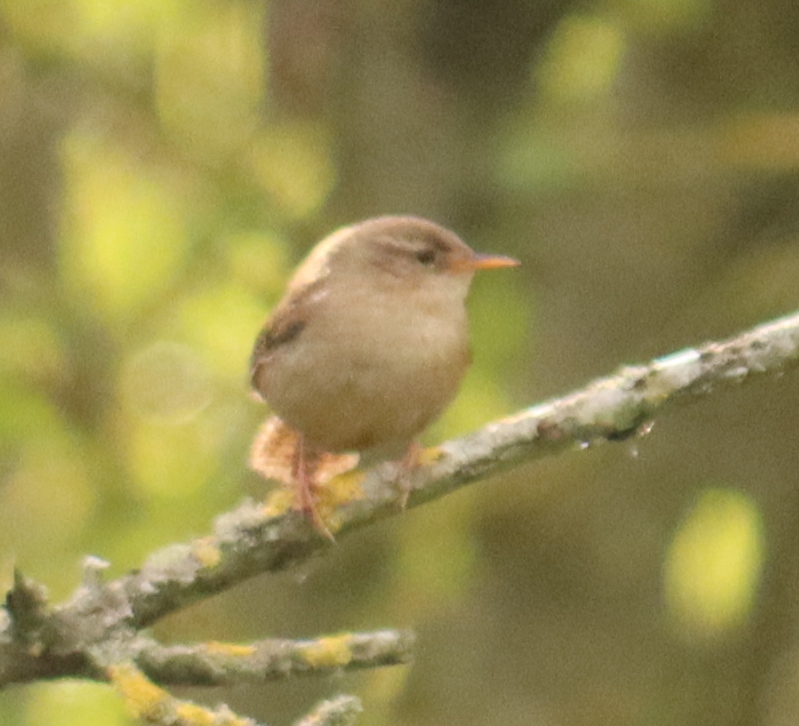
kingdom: Animalia
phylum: Chordata
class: Aves
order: Passeriformes
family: Troglodytidae
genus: Troglodytes
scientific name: Troglodytes troglodytes
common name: Eurasian wren
